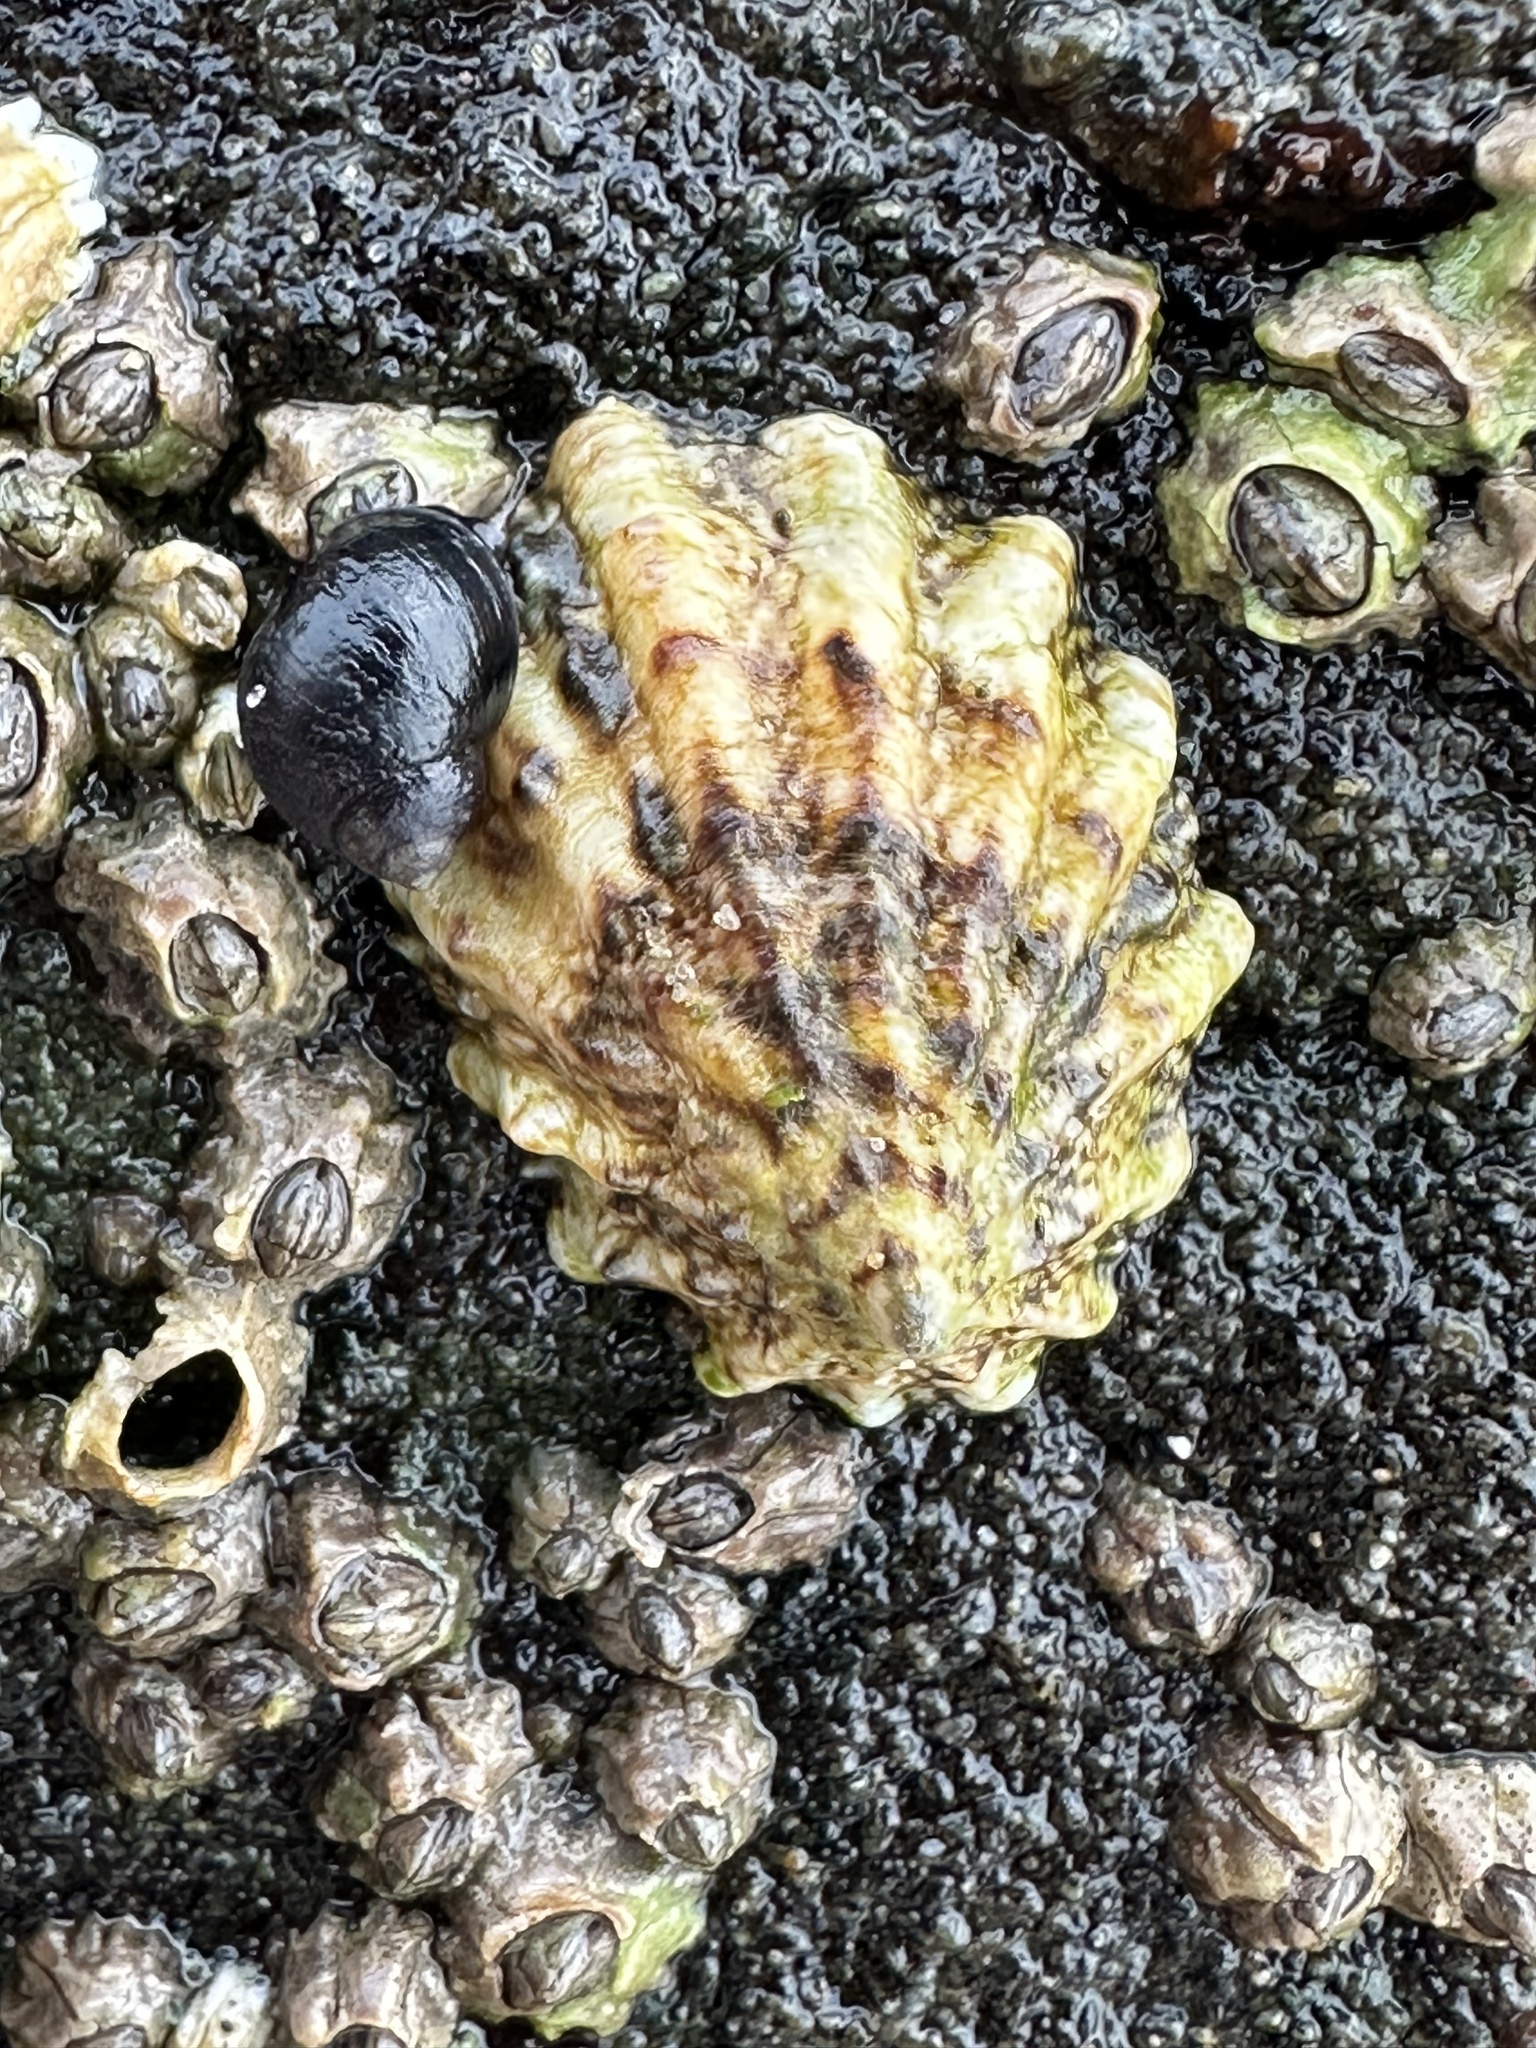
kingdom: Animalia
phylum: Mollusca
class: Gastropoda
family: Lottiidae
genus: Lottia
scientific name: Lottia scabra
